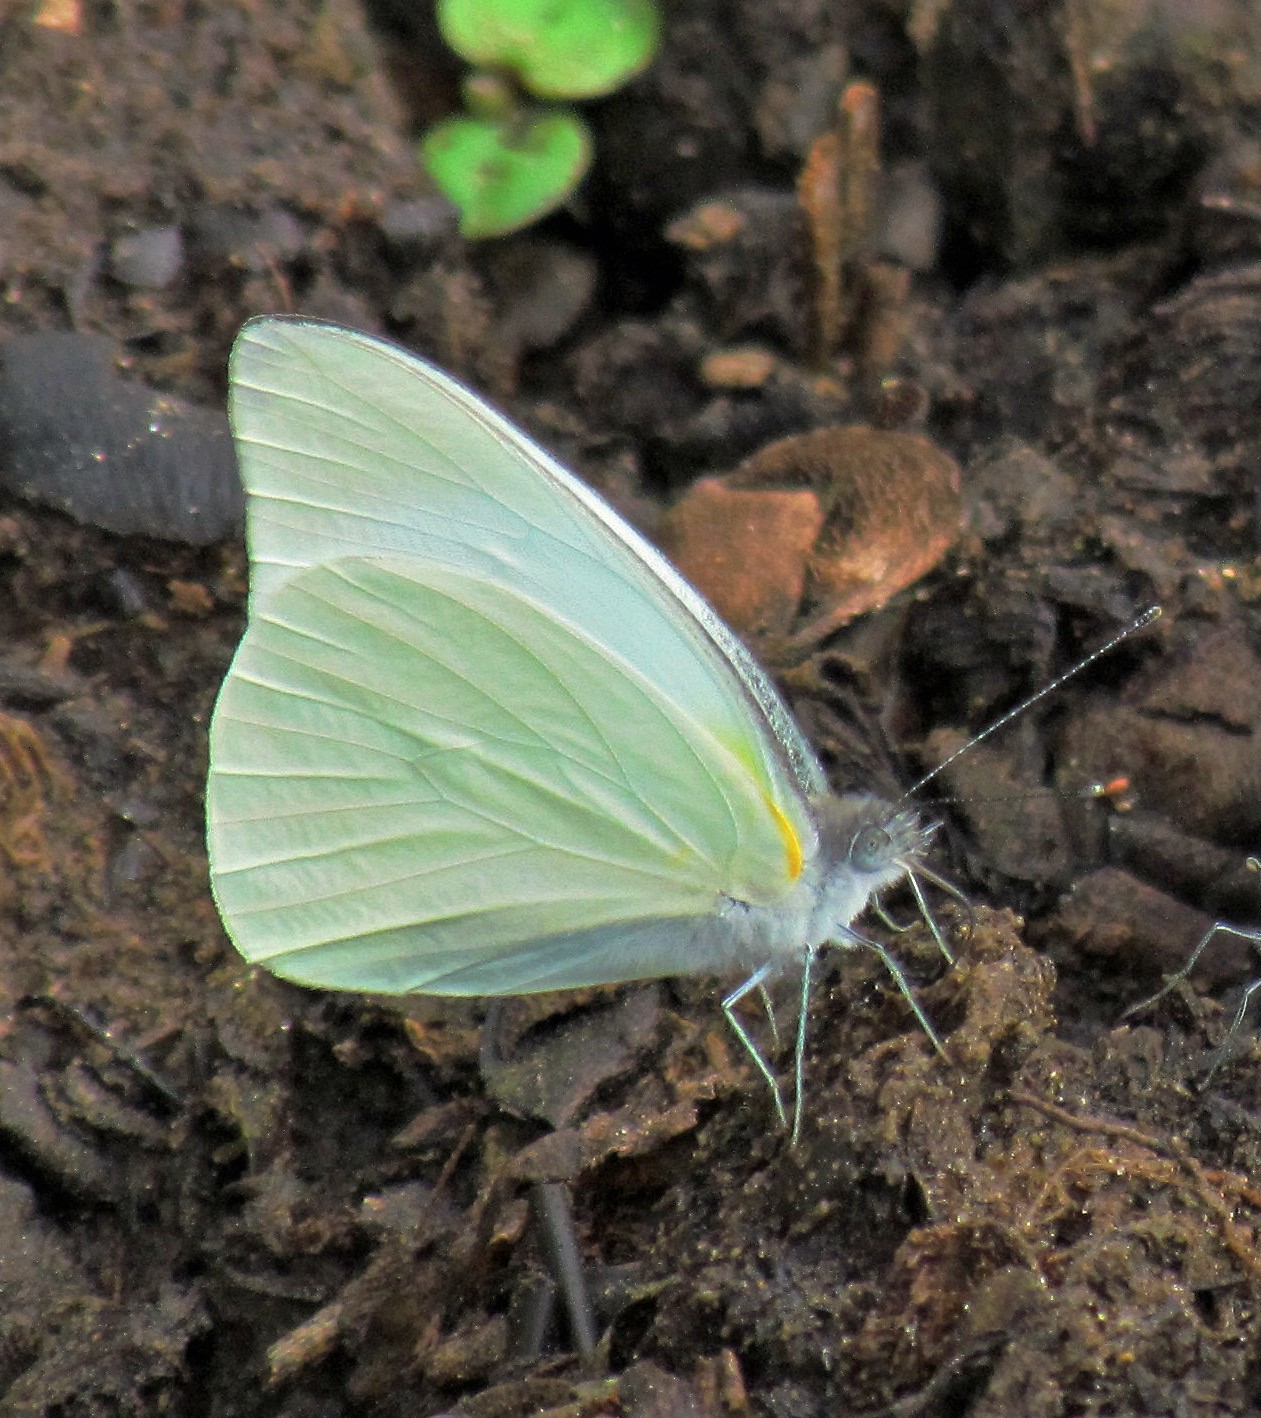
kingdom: Animalia
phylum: Arthropoda
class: Insecta
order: Lepidoptera
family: Pieridae
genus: Glutophrissa
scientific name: Glutophrissa drusilla
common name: Florida white
